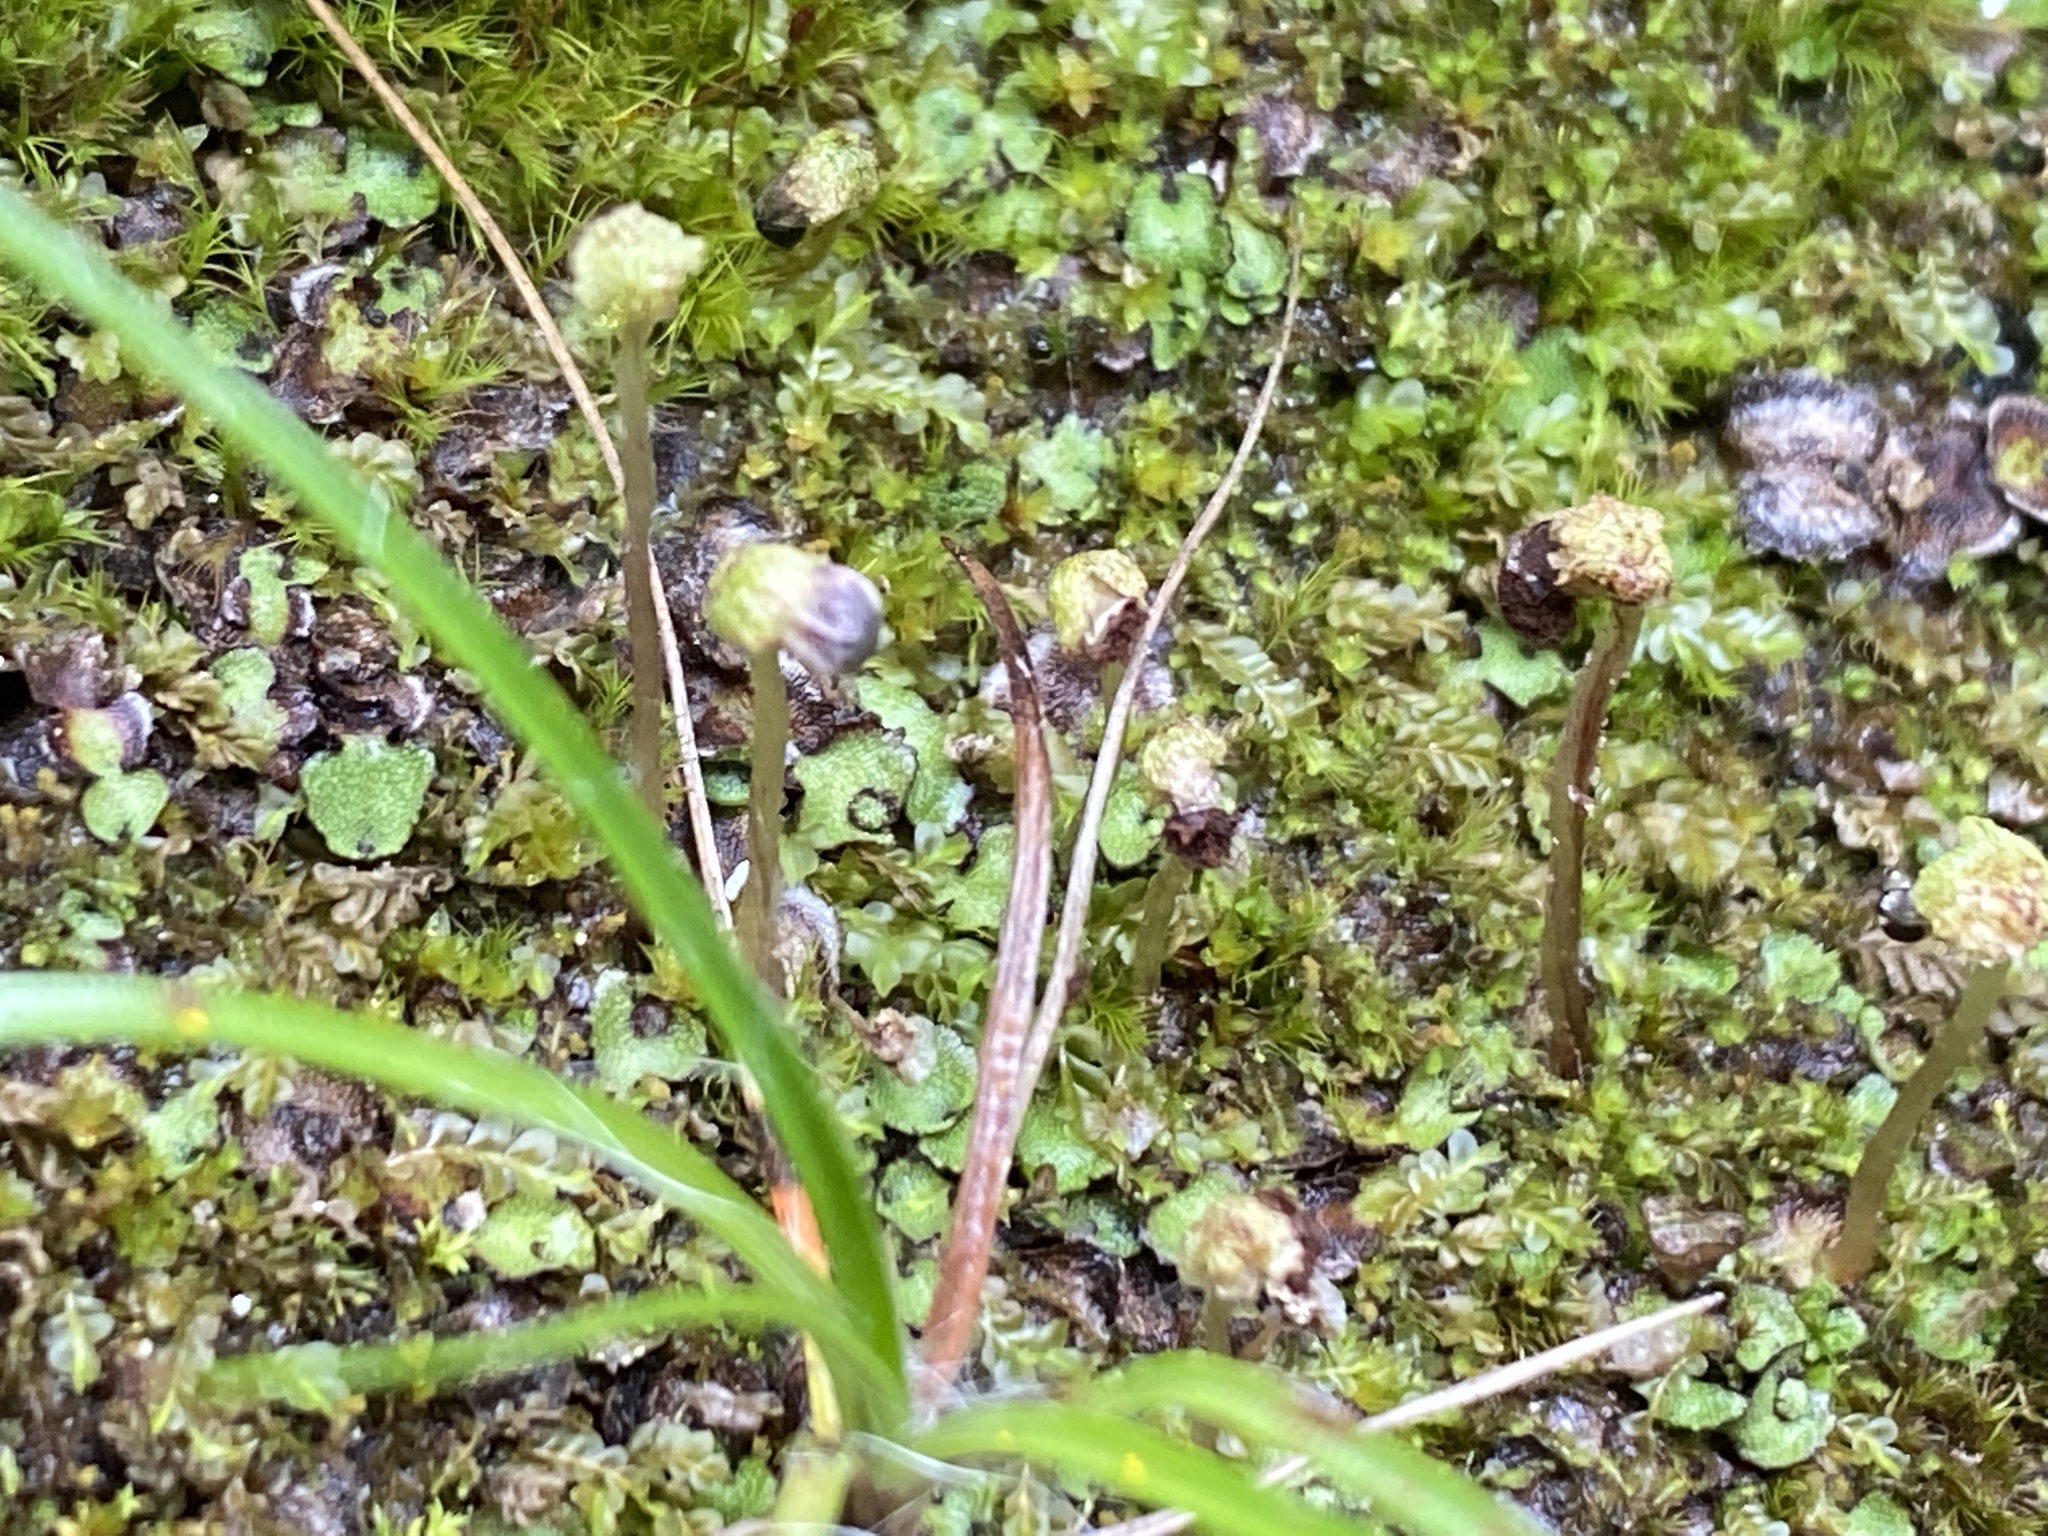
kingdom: Plantae
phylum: Marchantiophyta
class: Marchantiopsida
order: Marchantiales
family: Marchantiaceae
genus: Marchantia
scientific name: Marchantia quadrata
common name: Narrow mushroom-headed liverwort
